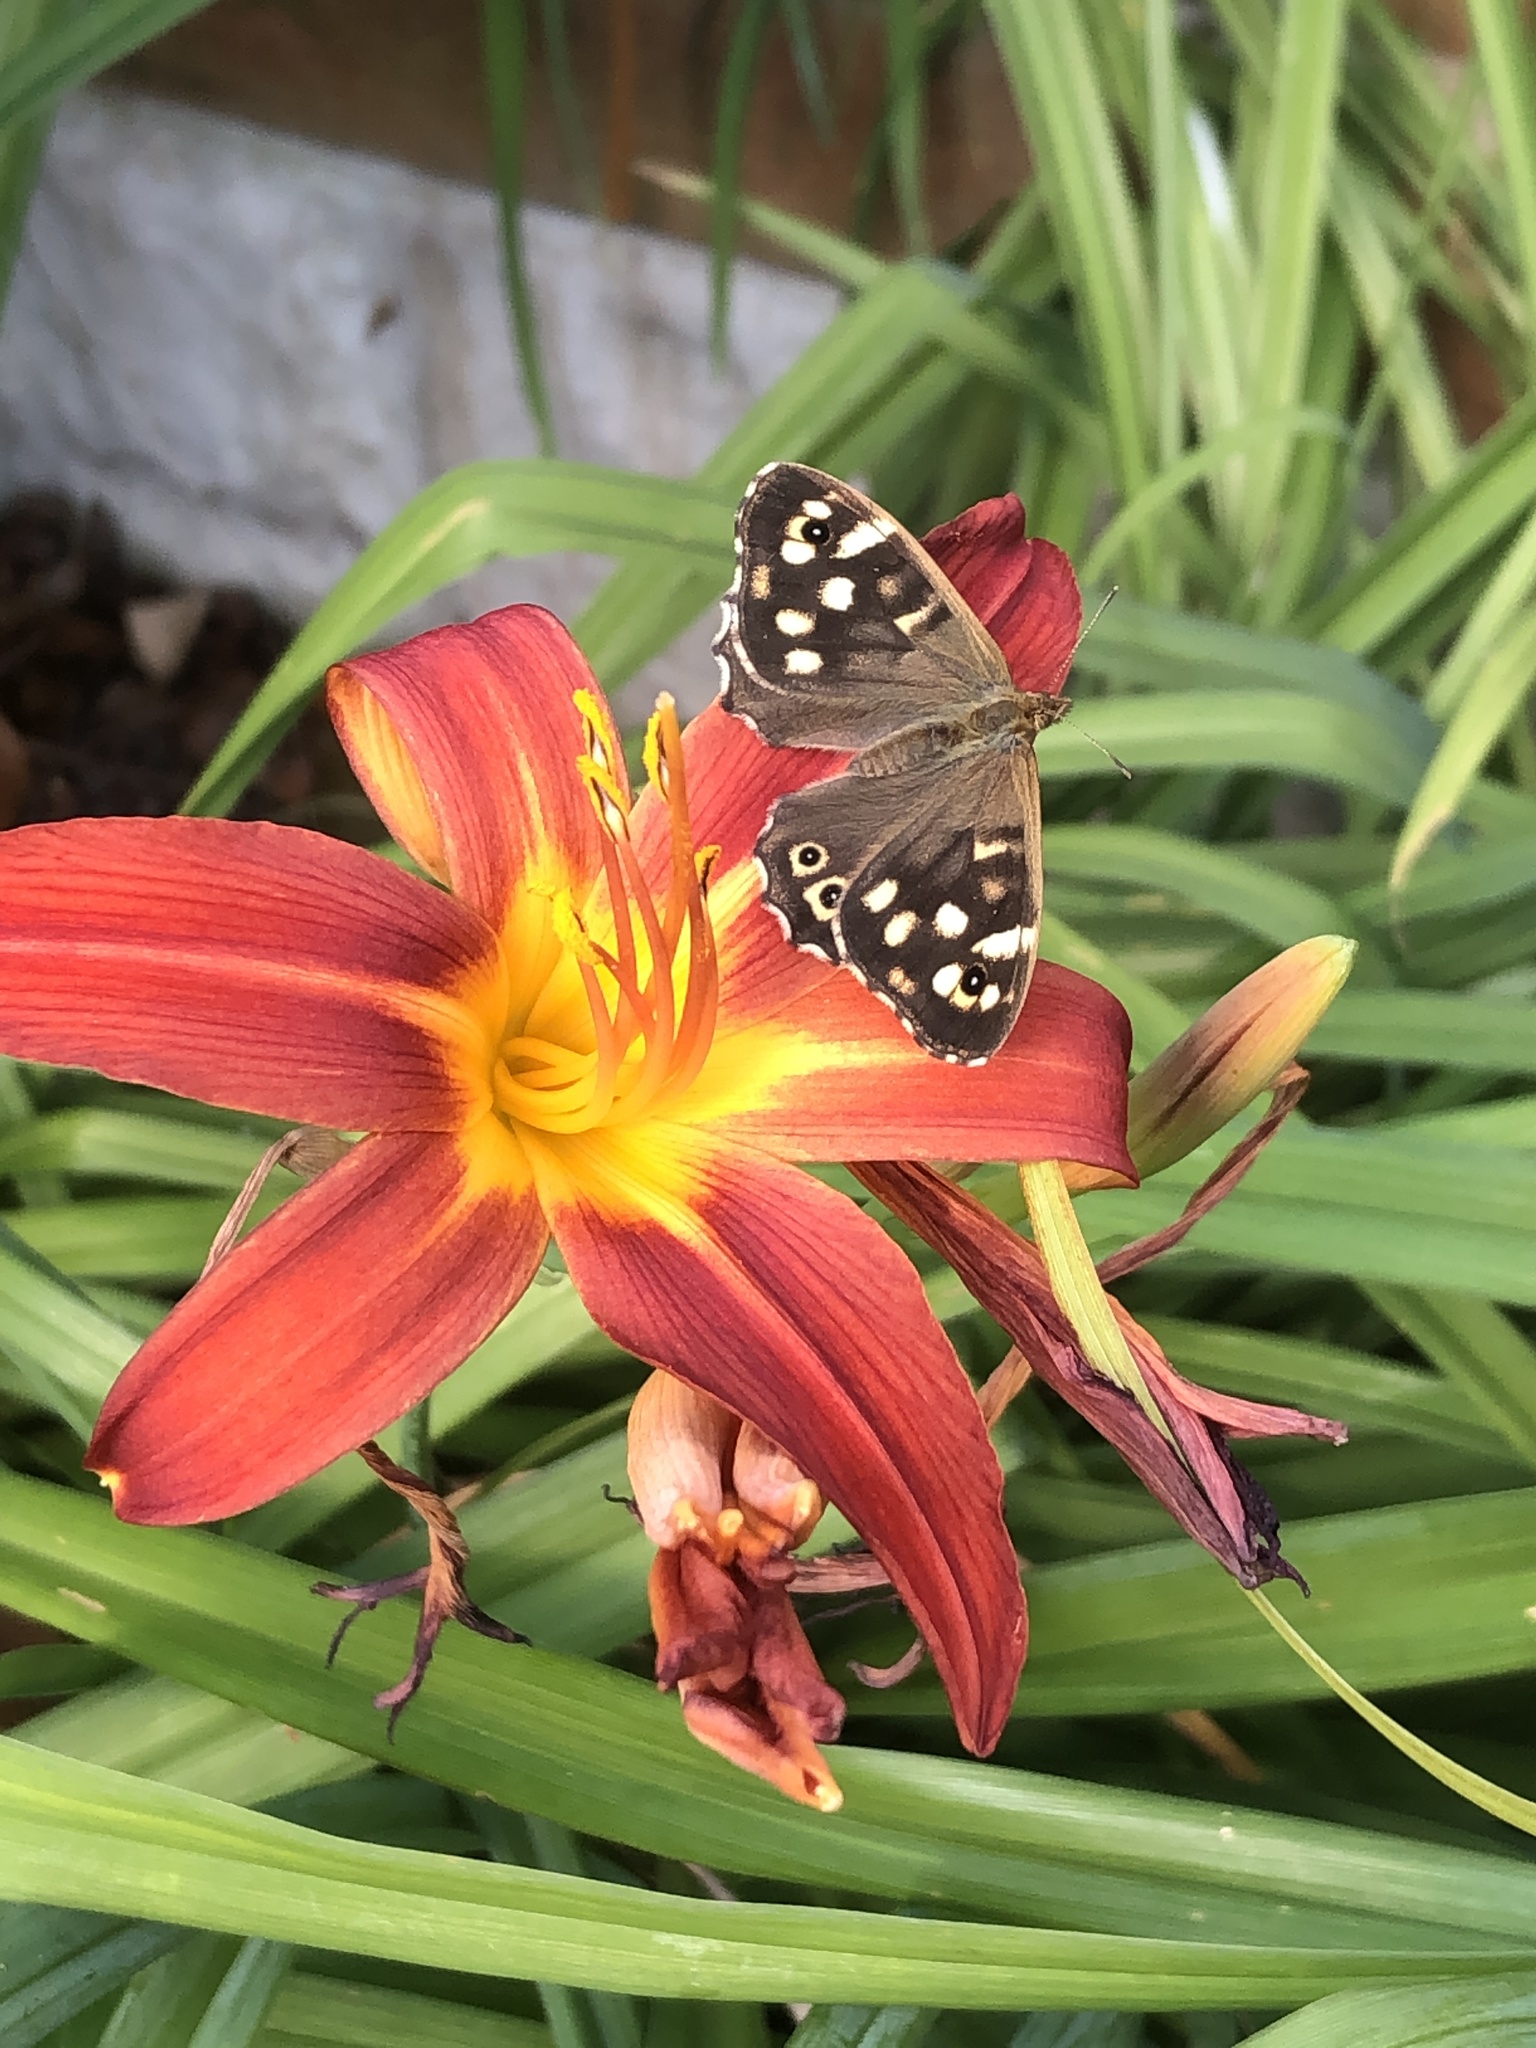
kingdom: Animalia
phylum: Arthropoda
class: Insecta
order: Lepidoptera
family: Nymphalidae
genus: Pararge
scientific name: Pararge aegeria
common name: Speckled wood
